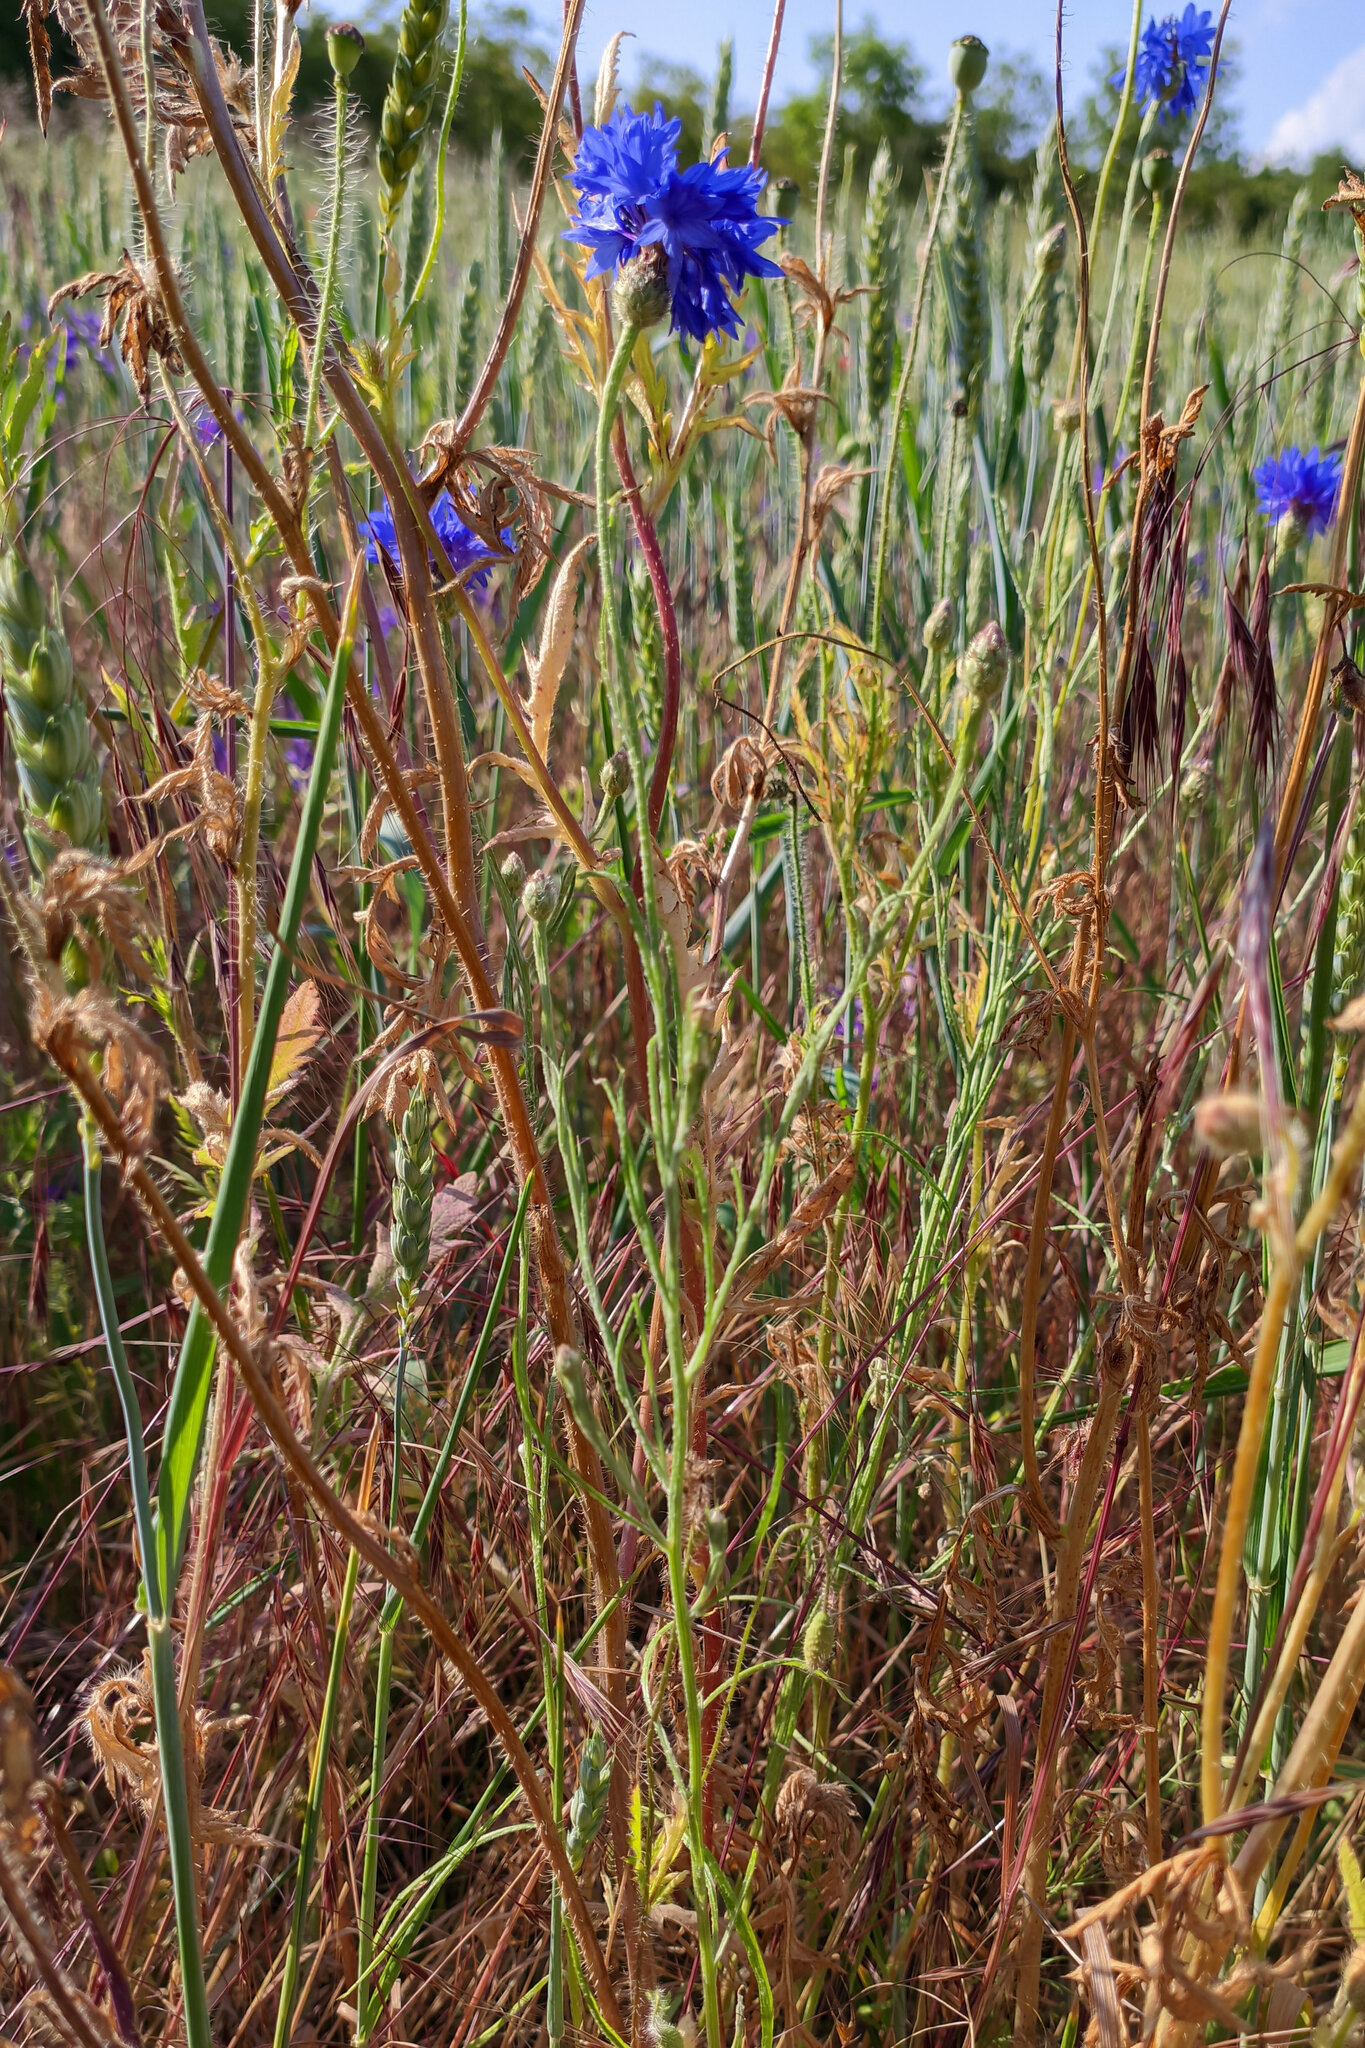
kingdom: Plantae
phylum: Tracheophyta
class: Magnoliopsida
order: Asterales
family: Asteraceae
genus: Centaurea
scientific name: Centaurea cyanus
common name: Cornflower
